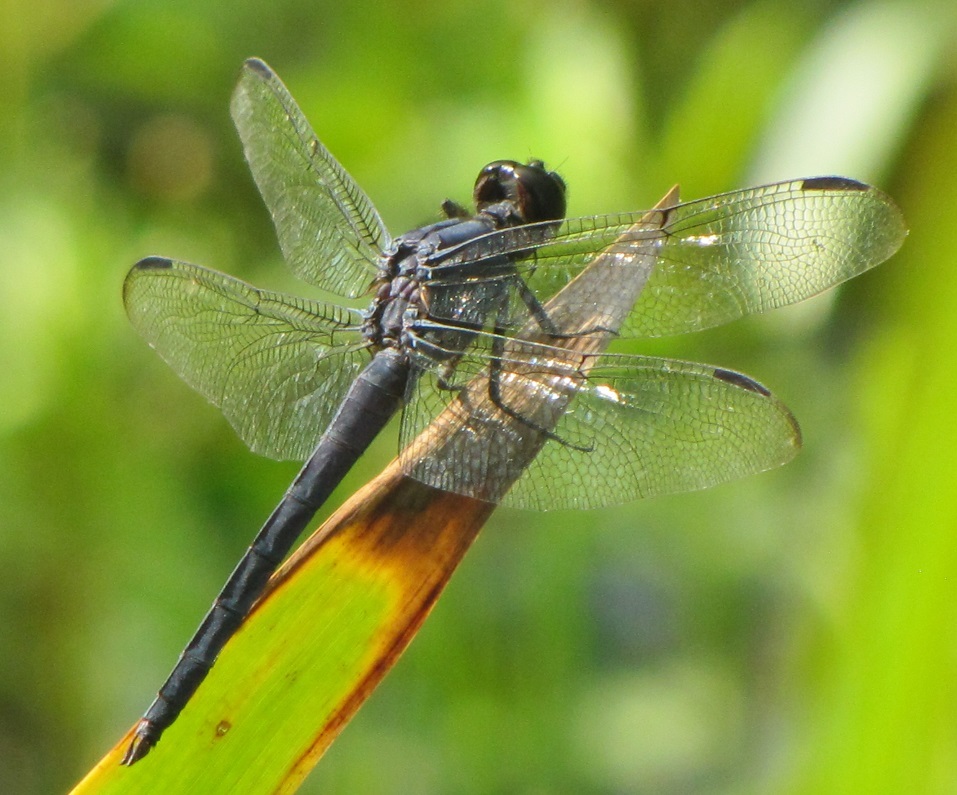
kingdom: Animalia
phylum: Arthropoda
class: Insecta
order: Odonata
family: Libellulidae
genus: Libellula
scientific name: Libellula incesta
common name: Slaty skimmer
